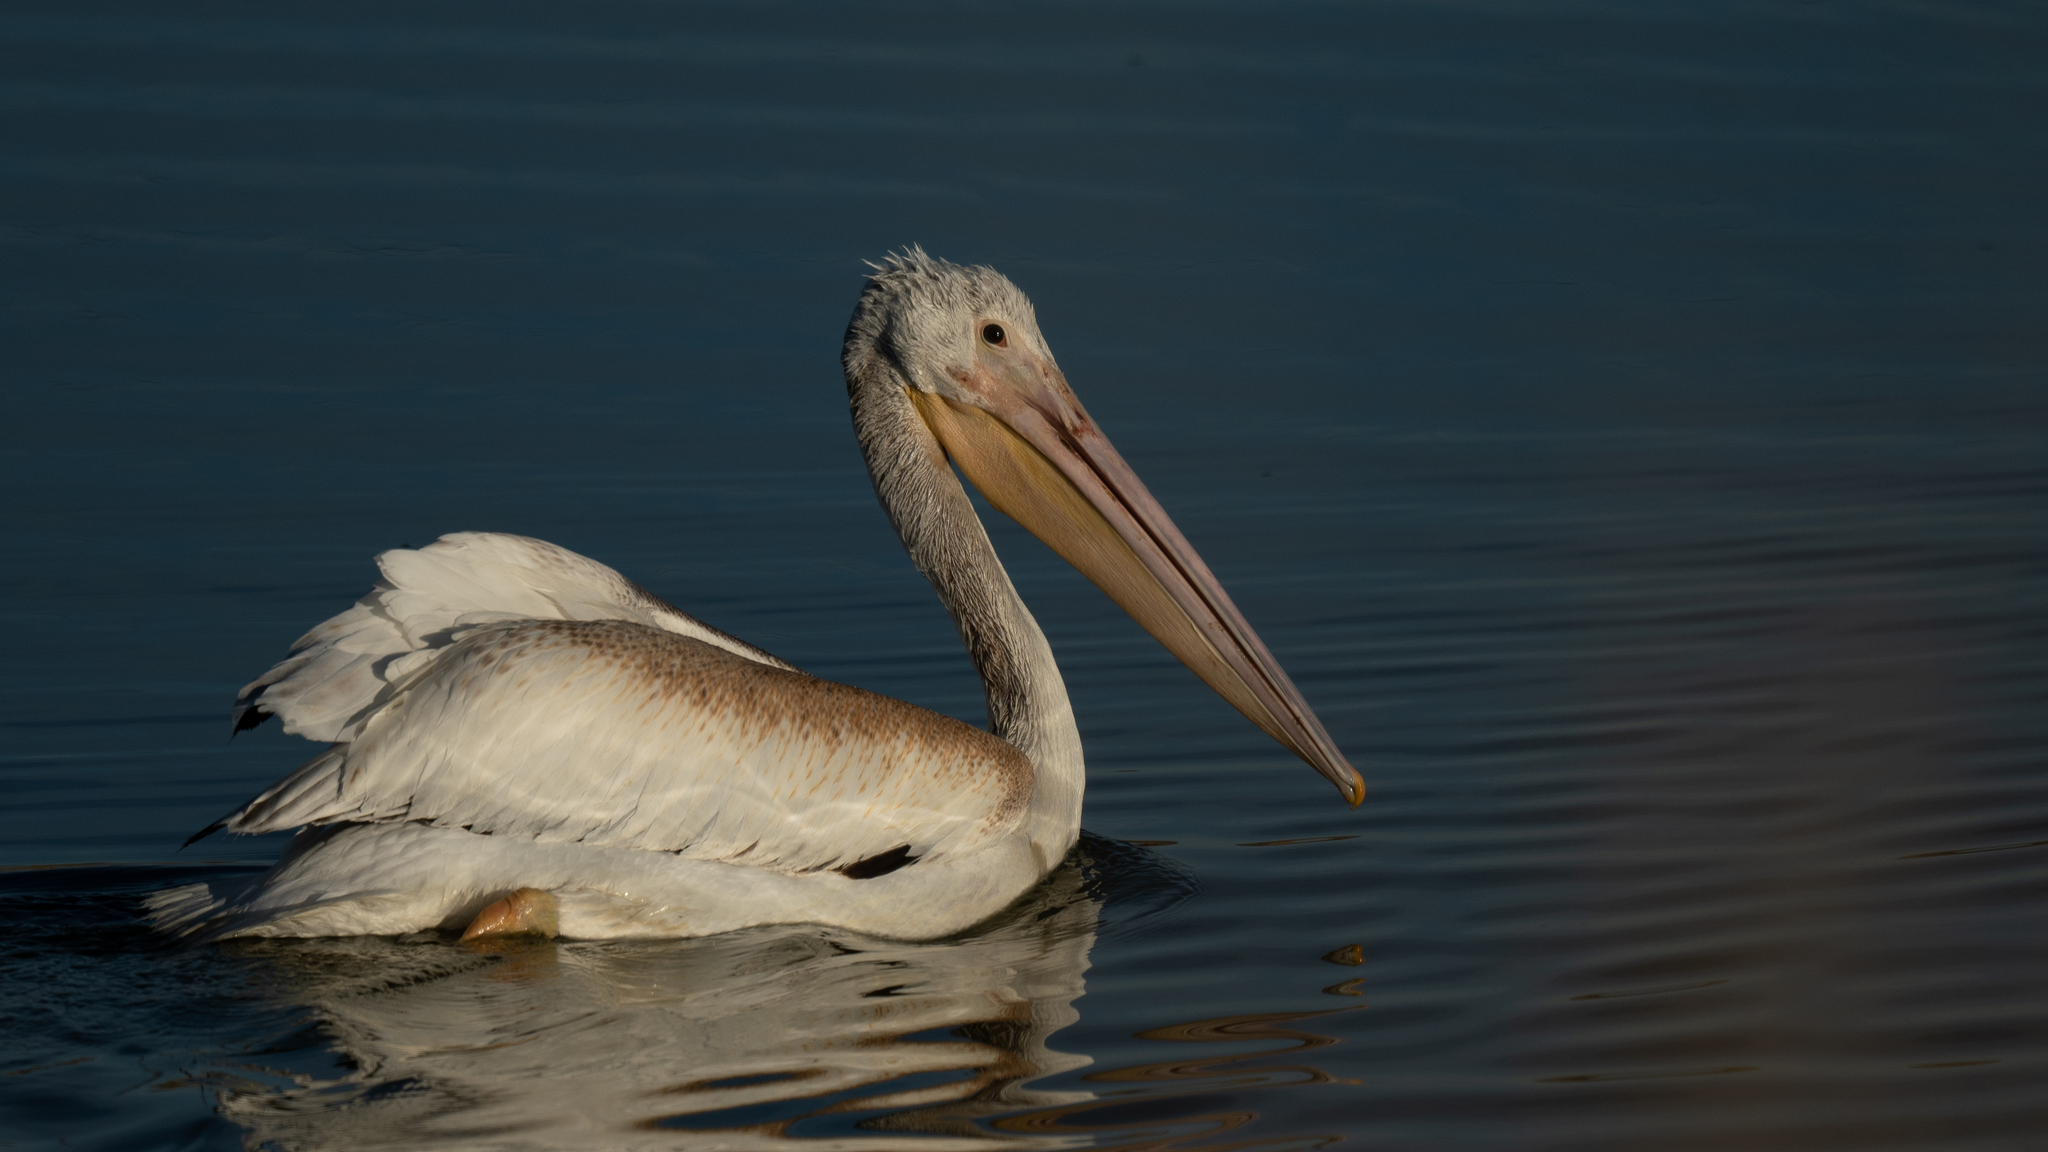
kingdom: Animalia
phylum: Chordata
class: Aves
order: Pelecaniformes
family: Pelecanidae
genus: Pelecanus
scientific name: Pelecanus erythrorhynchos
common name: American white pelican
